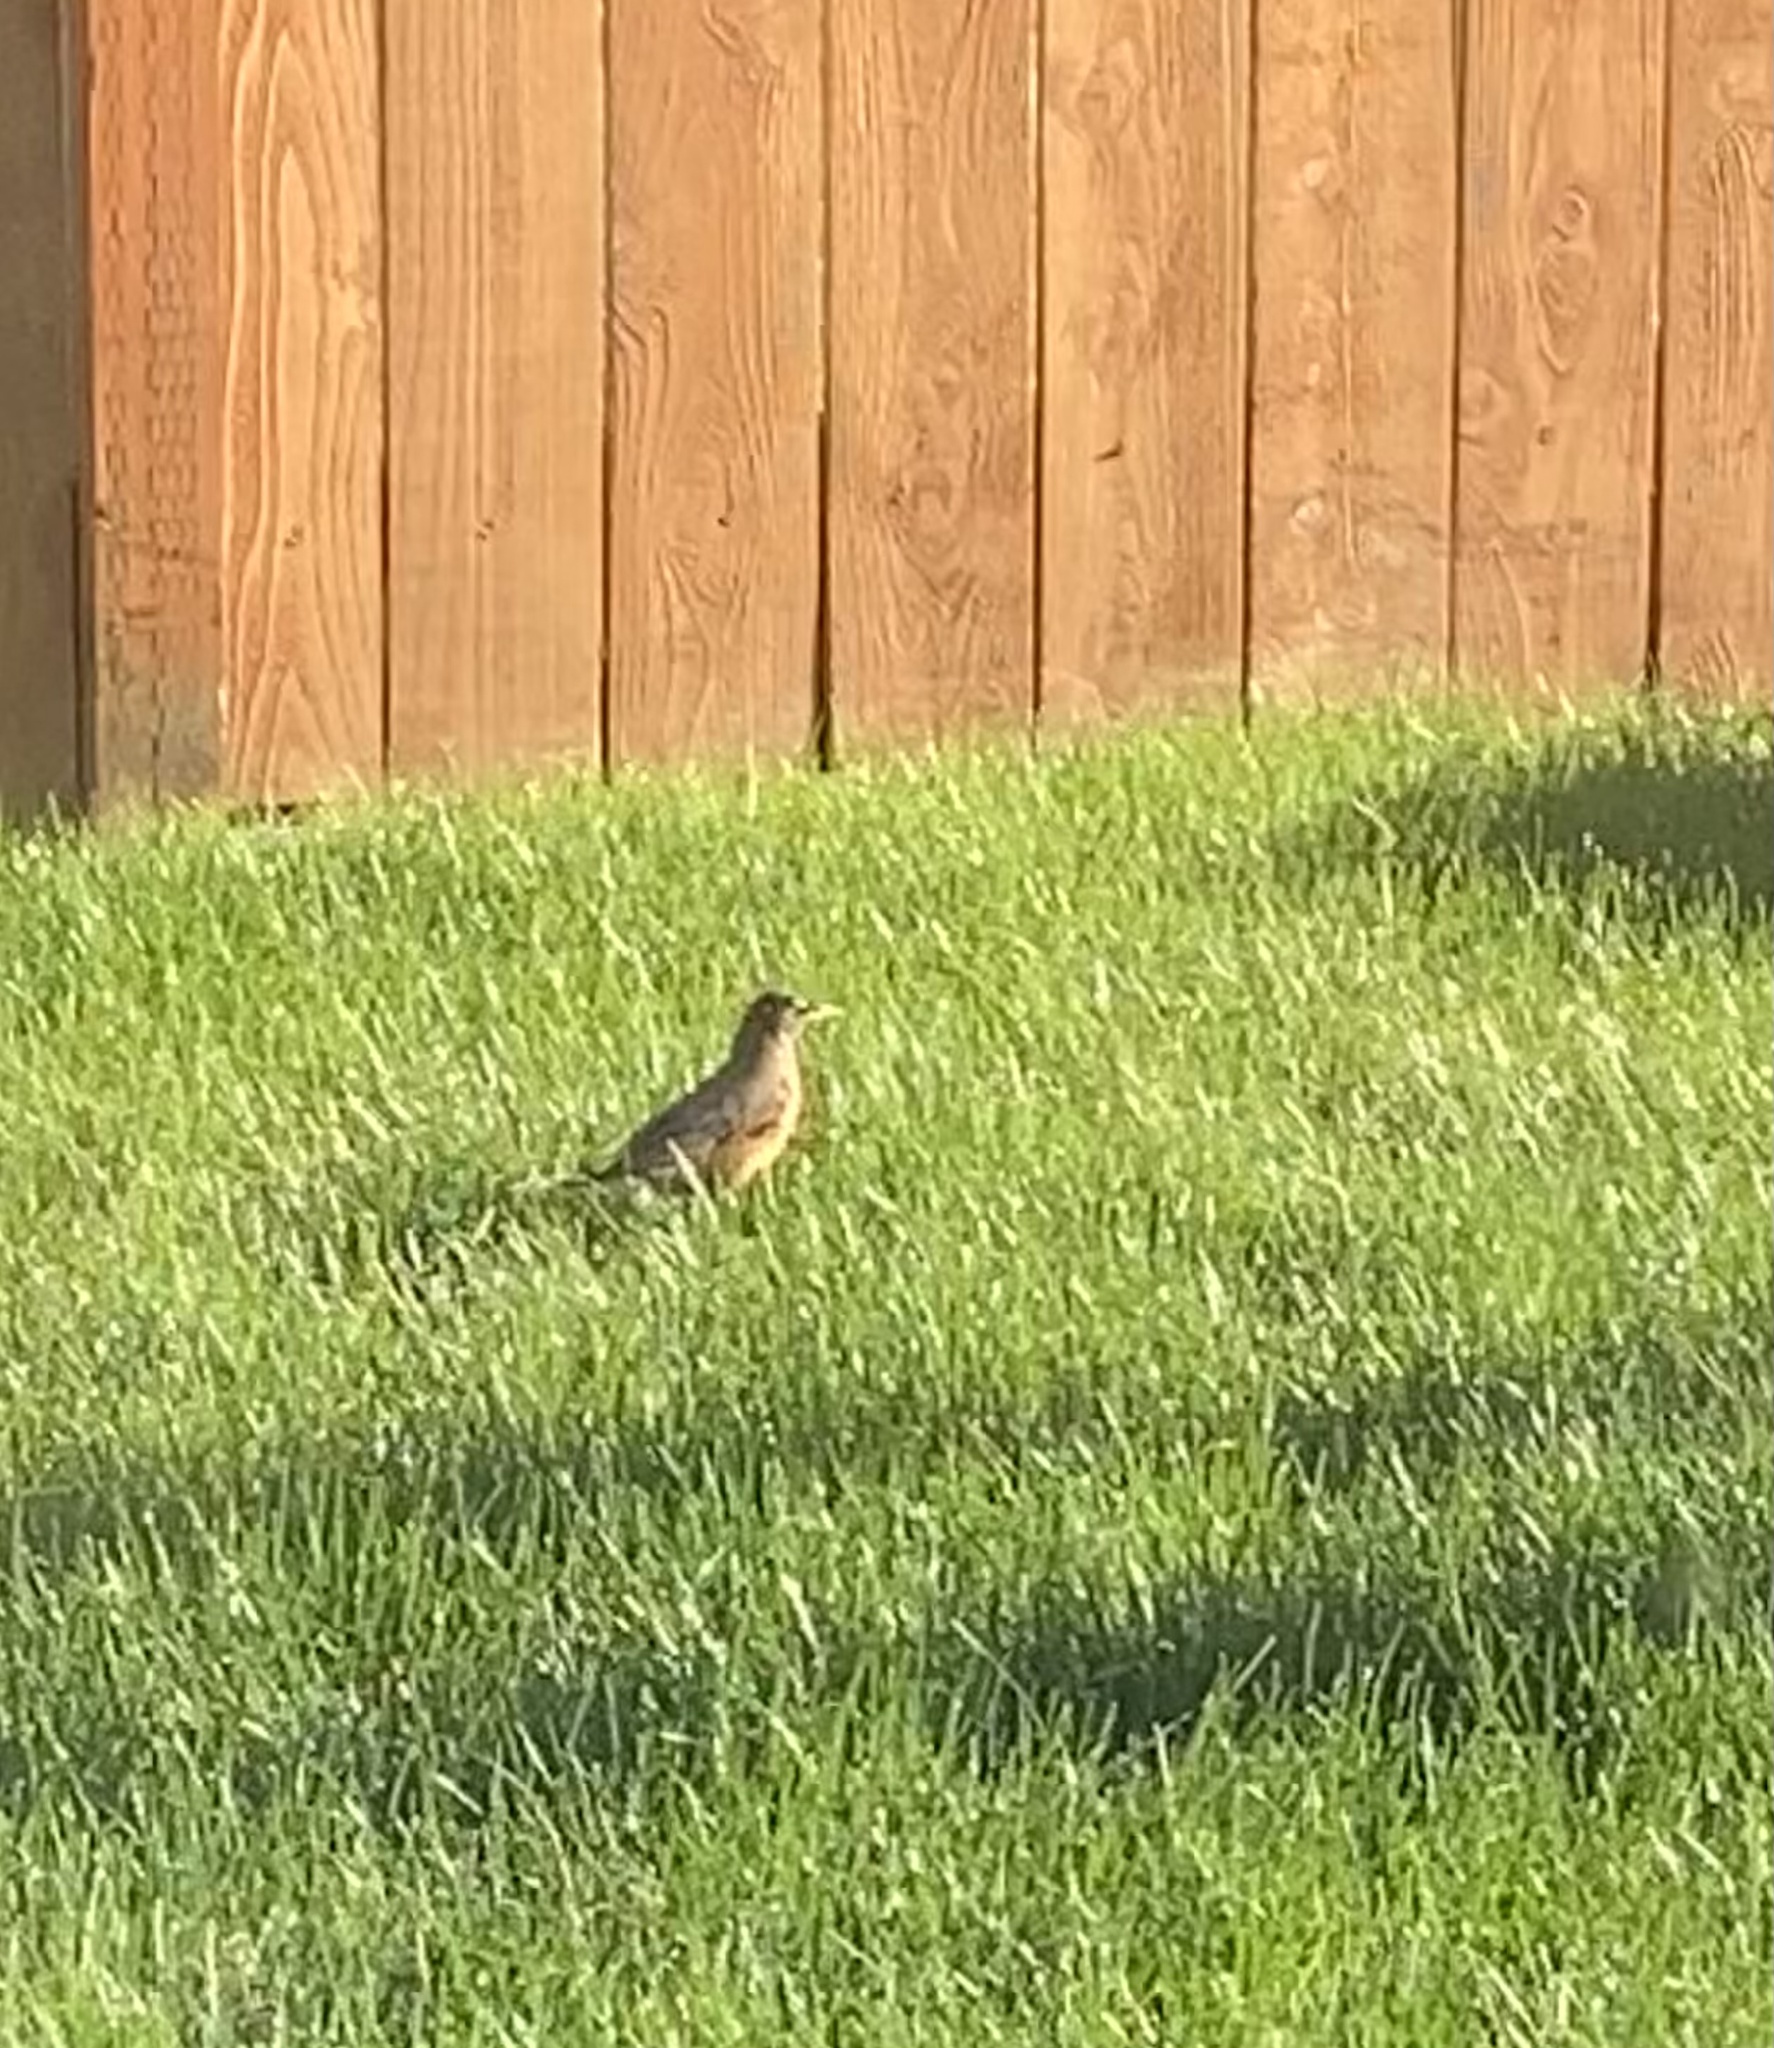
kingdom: Animalia
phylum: Chordata
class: Aves
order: Passeriformes
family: Turdidae
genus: Turdus
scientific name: Turdus migratorius
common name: American robin
